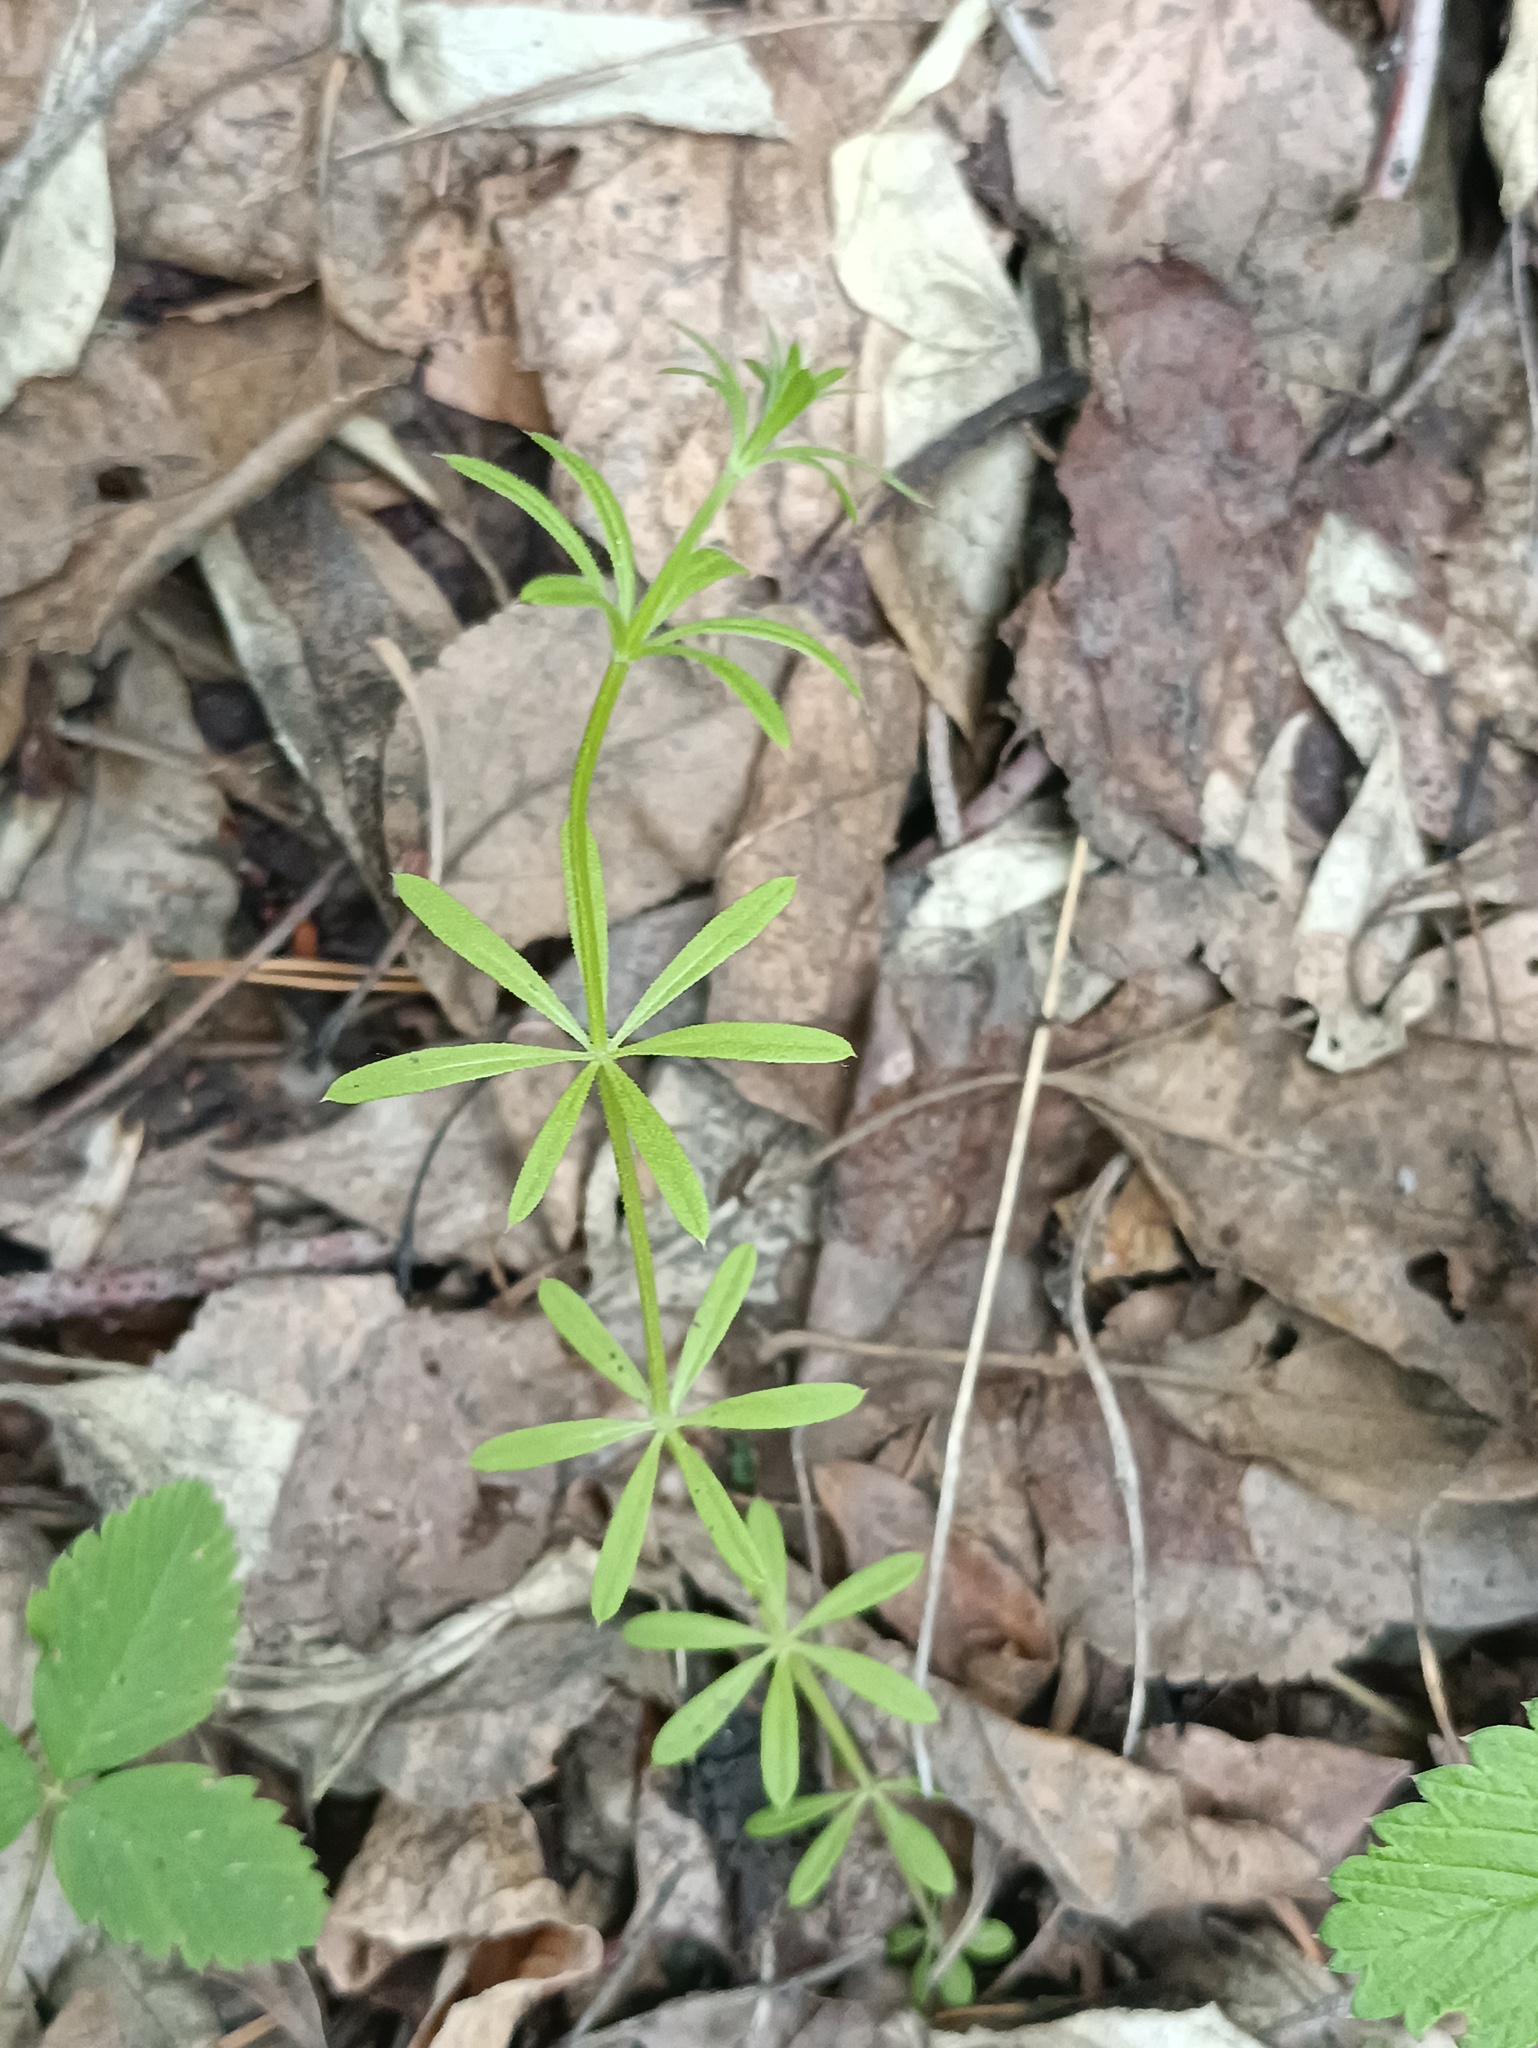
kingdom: Plantae
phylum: Tracheophyta
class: Magnoliopsida
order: Gentianales
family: Rubiaceae
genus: Galium
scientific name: Galium aparine
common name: Cleavers
